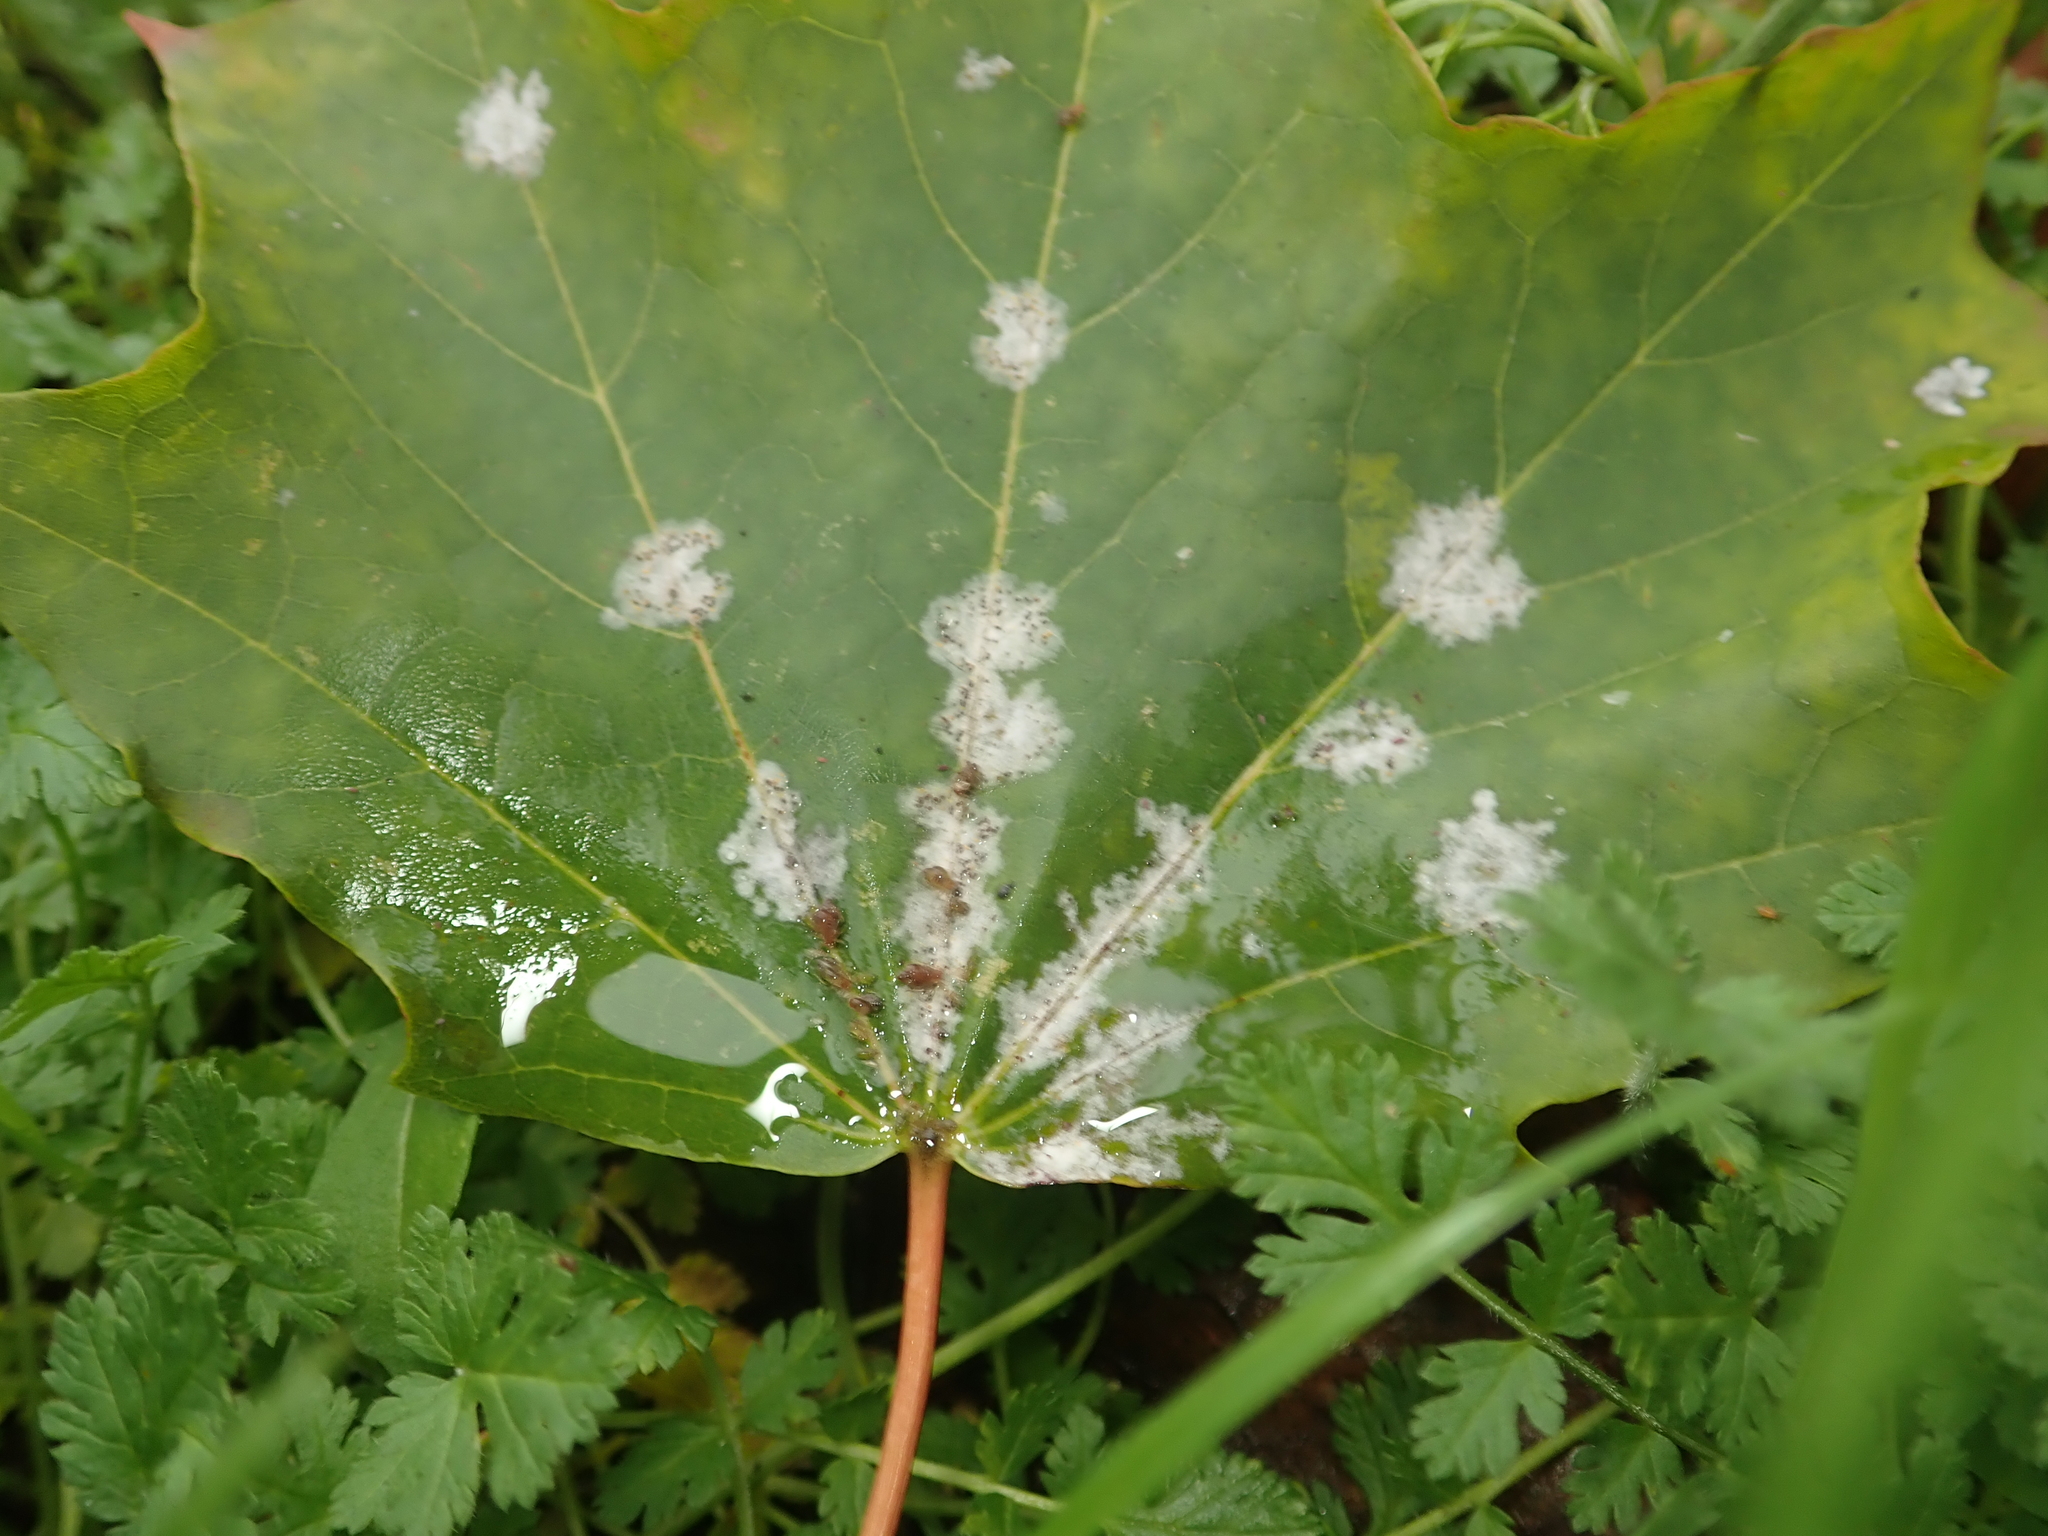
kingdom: Fungi
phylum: Ascomycota
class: Leotiomycetes
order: Helotiales
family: Erysiphaceae
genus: Sawadaea
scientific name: Sawadaea tulasnei
